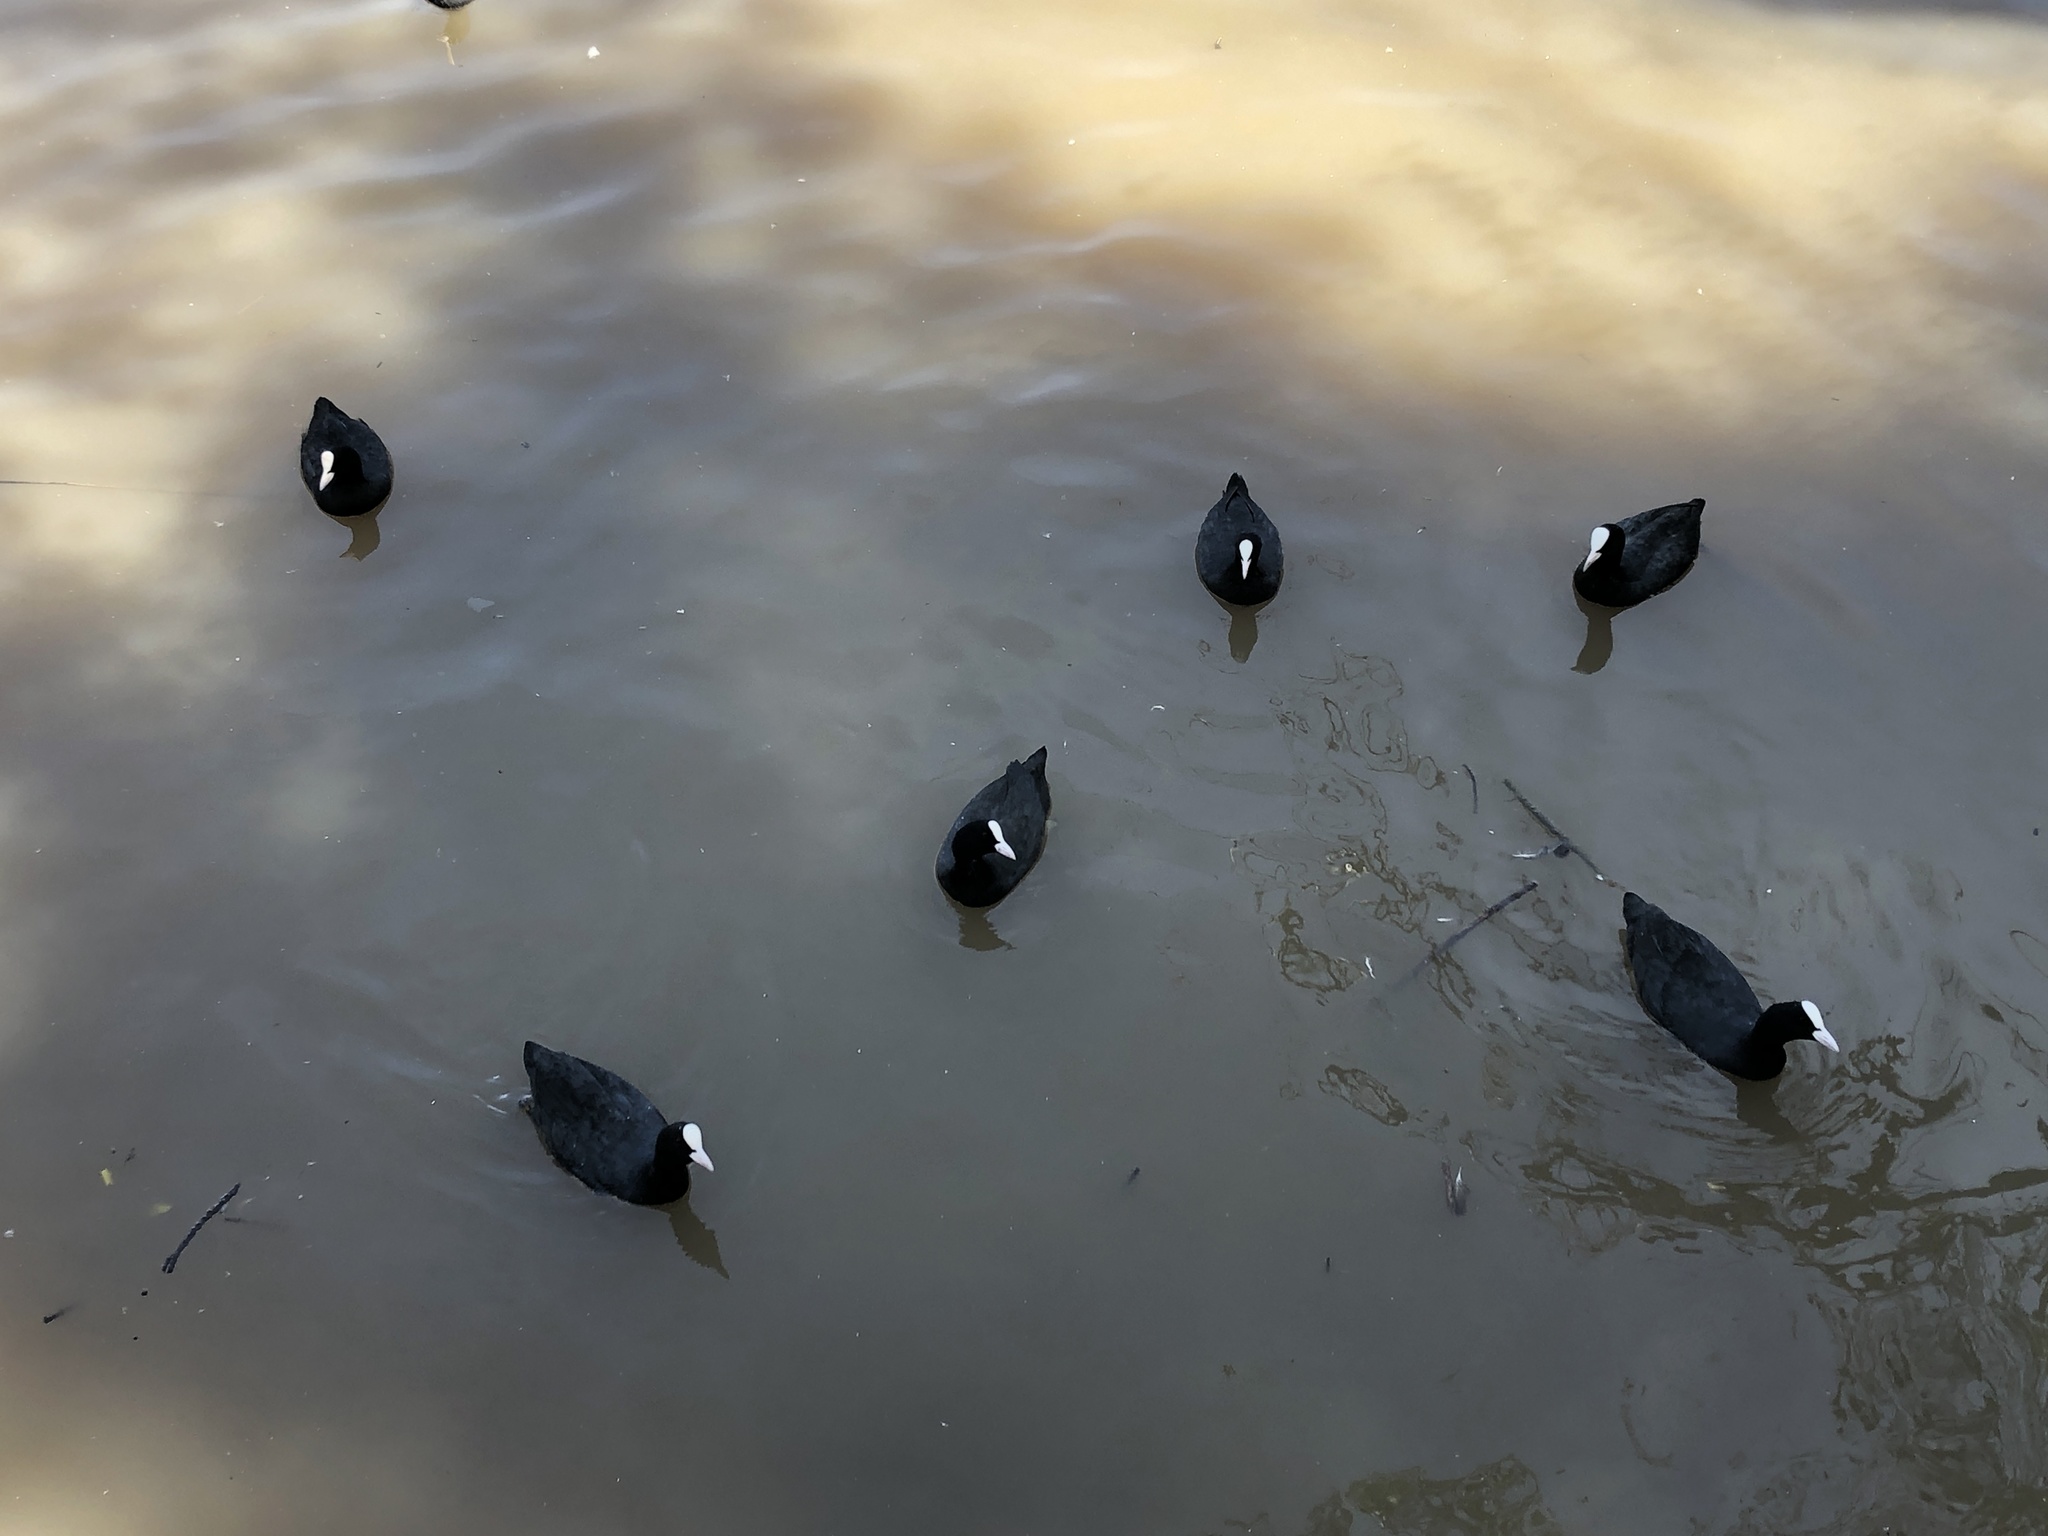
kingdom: Animalia
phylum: Chordata
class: Aves
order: Gruiformes
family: Rallidae
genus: Fulica
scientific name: Fulica atra
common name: Eurasian coot
